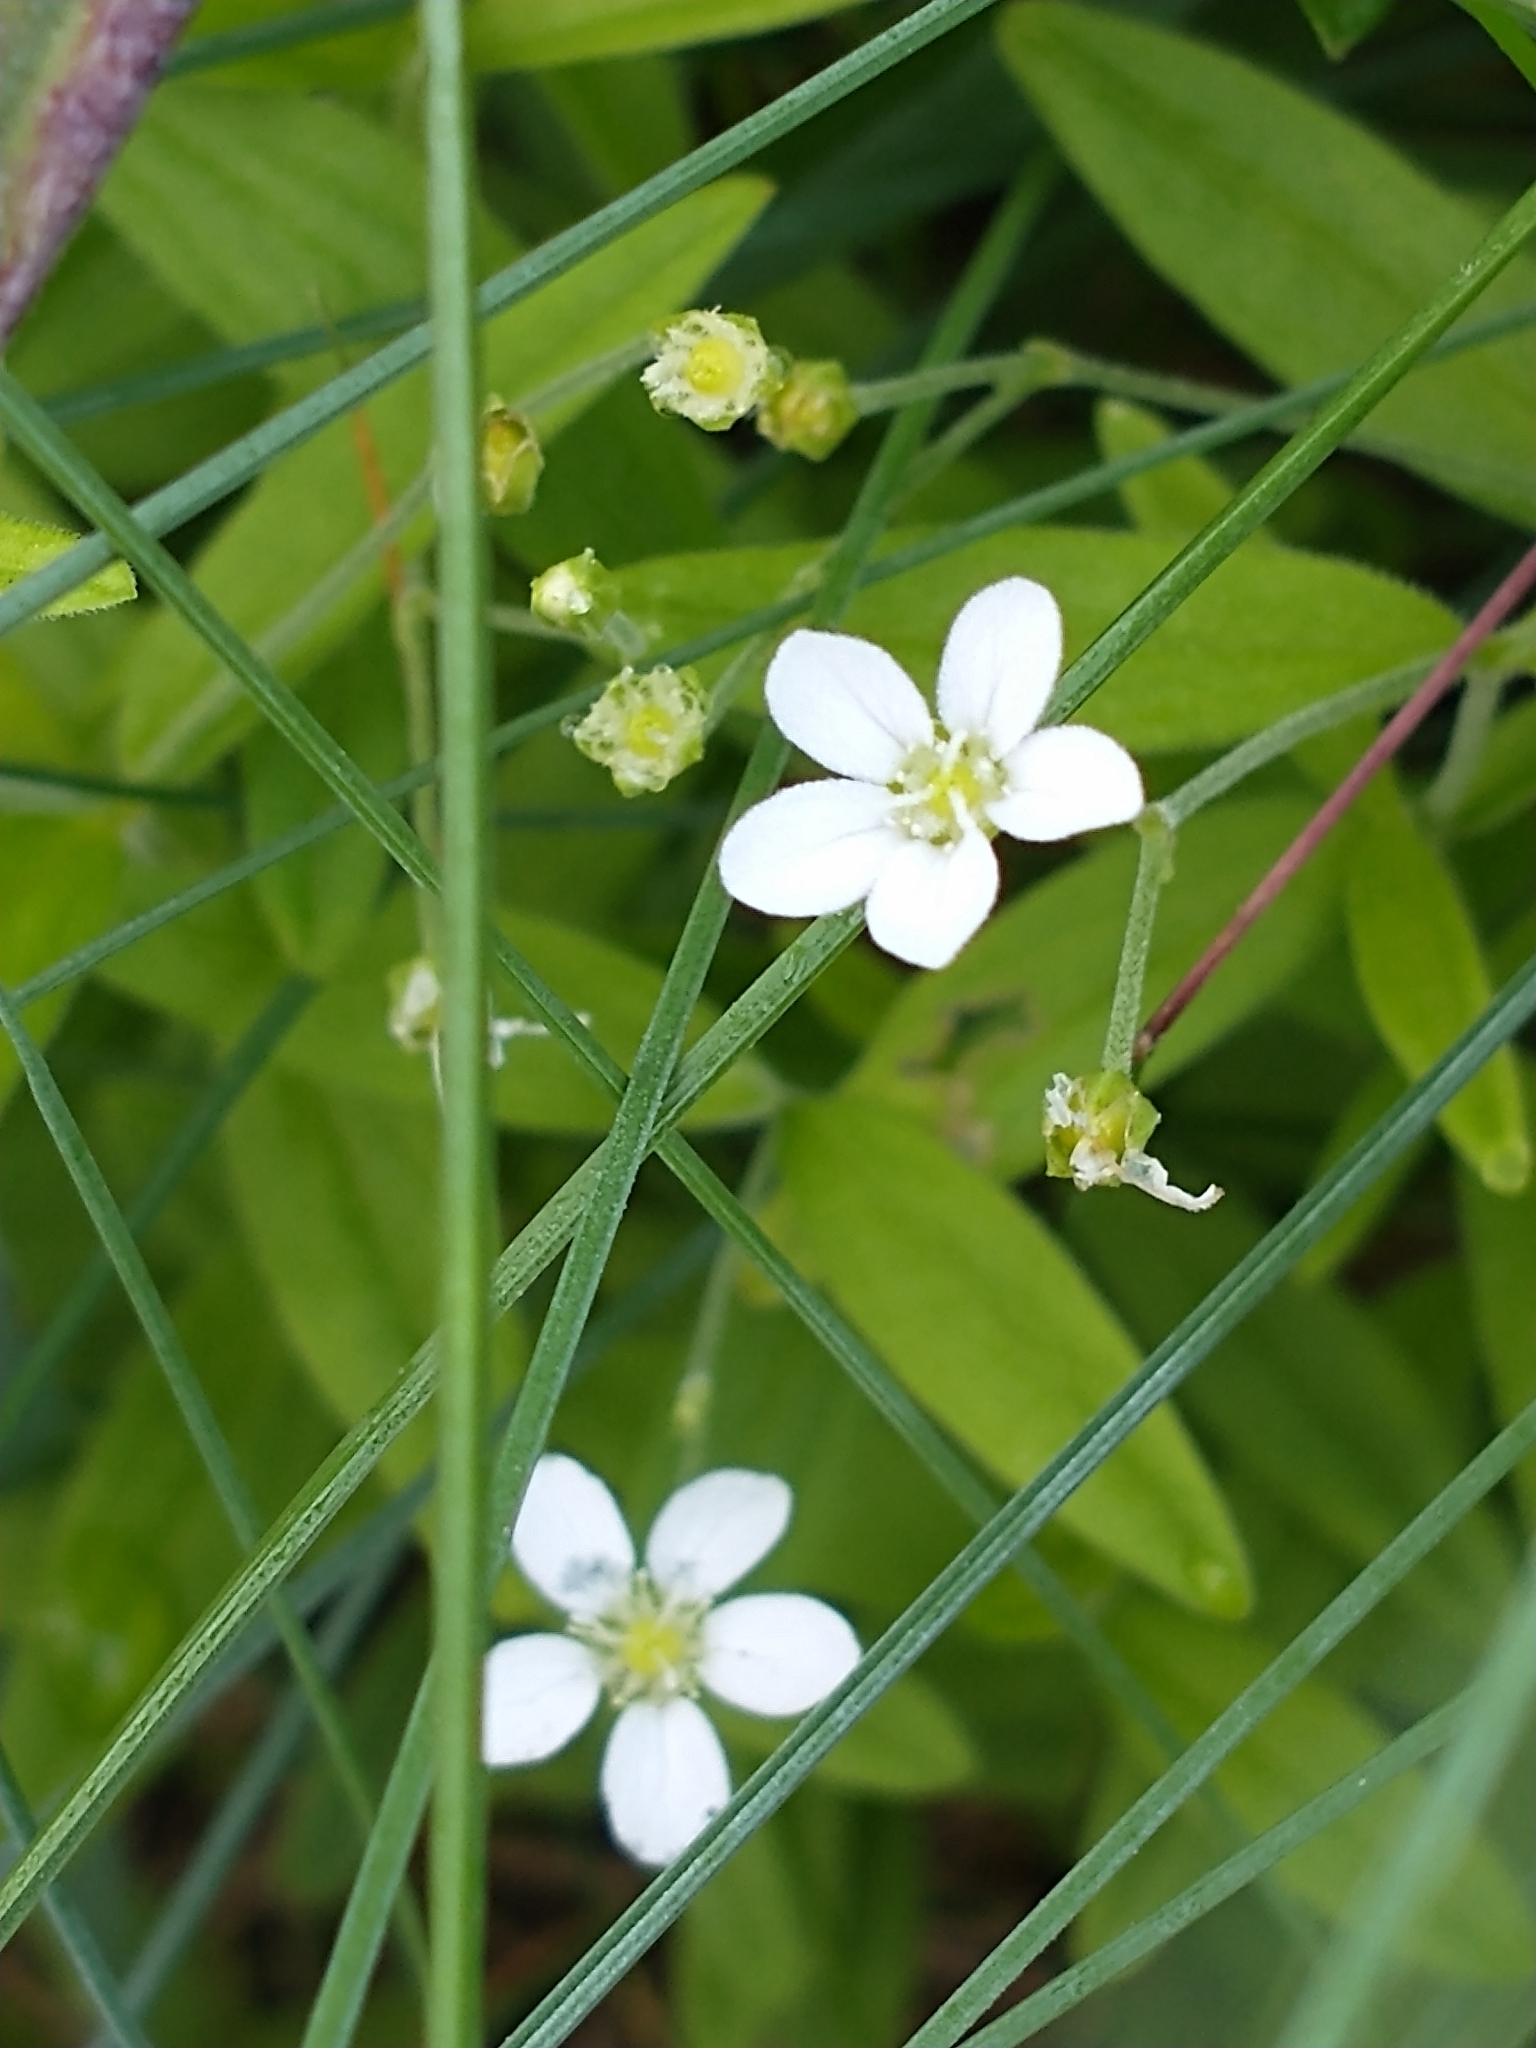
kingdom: Plantae
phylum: Tracheophyta
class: Magnoliopsida
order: Caryophyllales
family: Caryophyllaceae
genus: Moehringia
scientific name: Moehringia lateriflora
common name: Blunt-leaved sandwort
